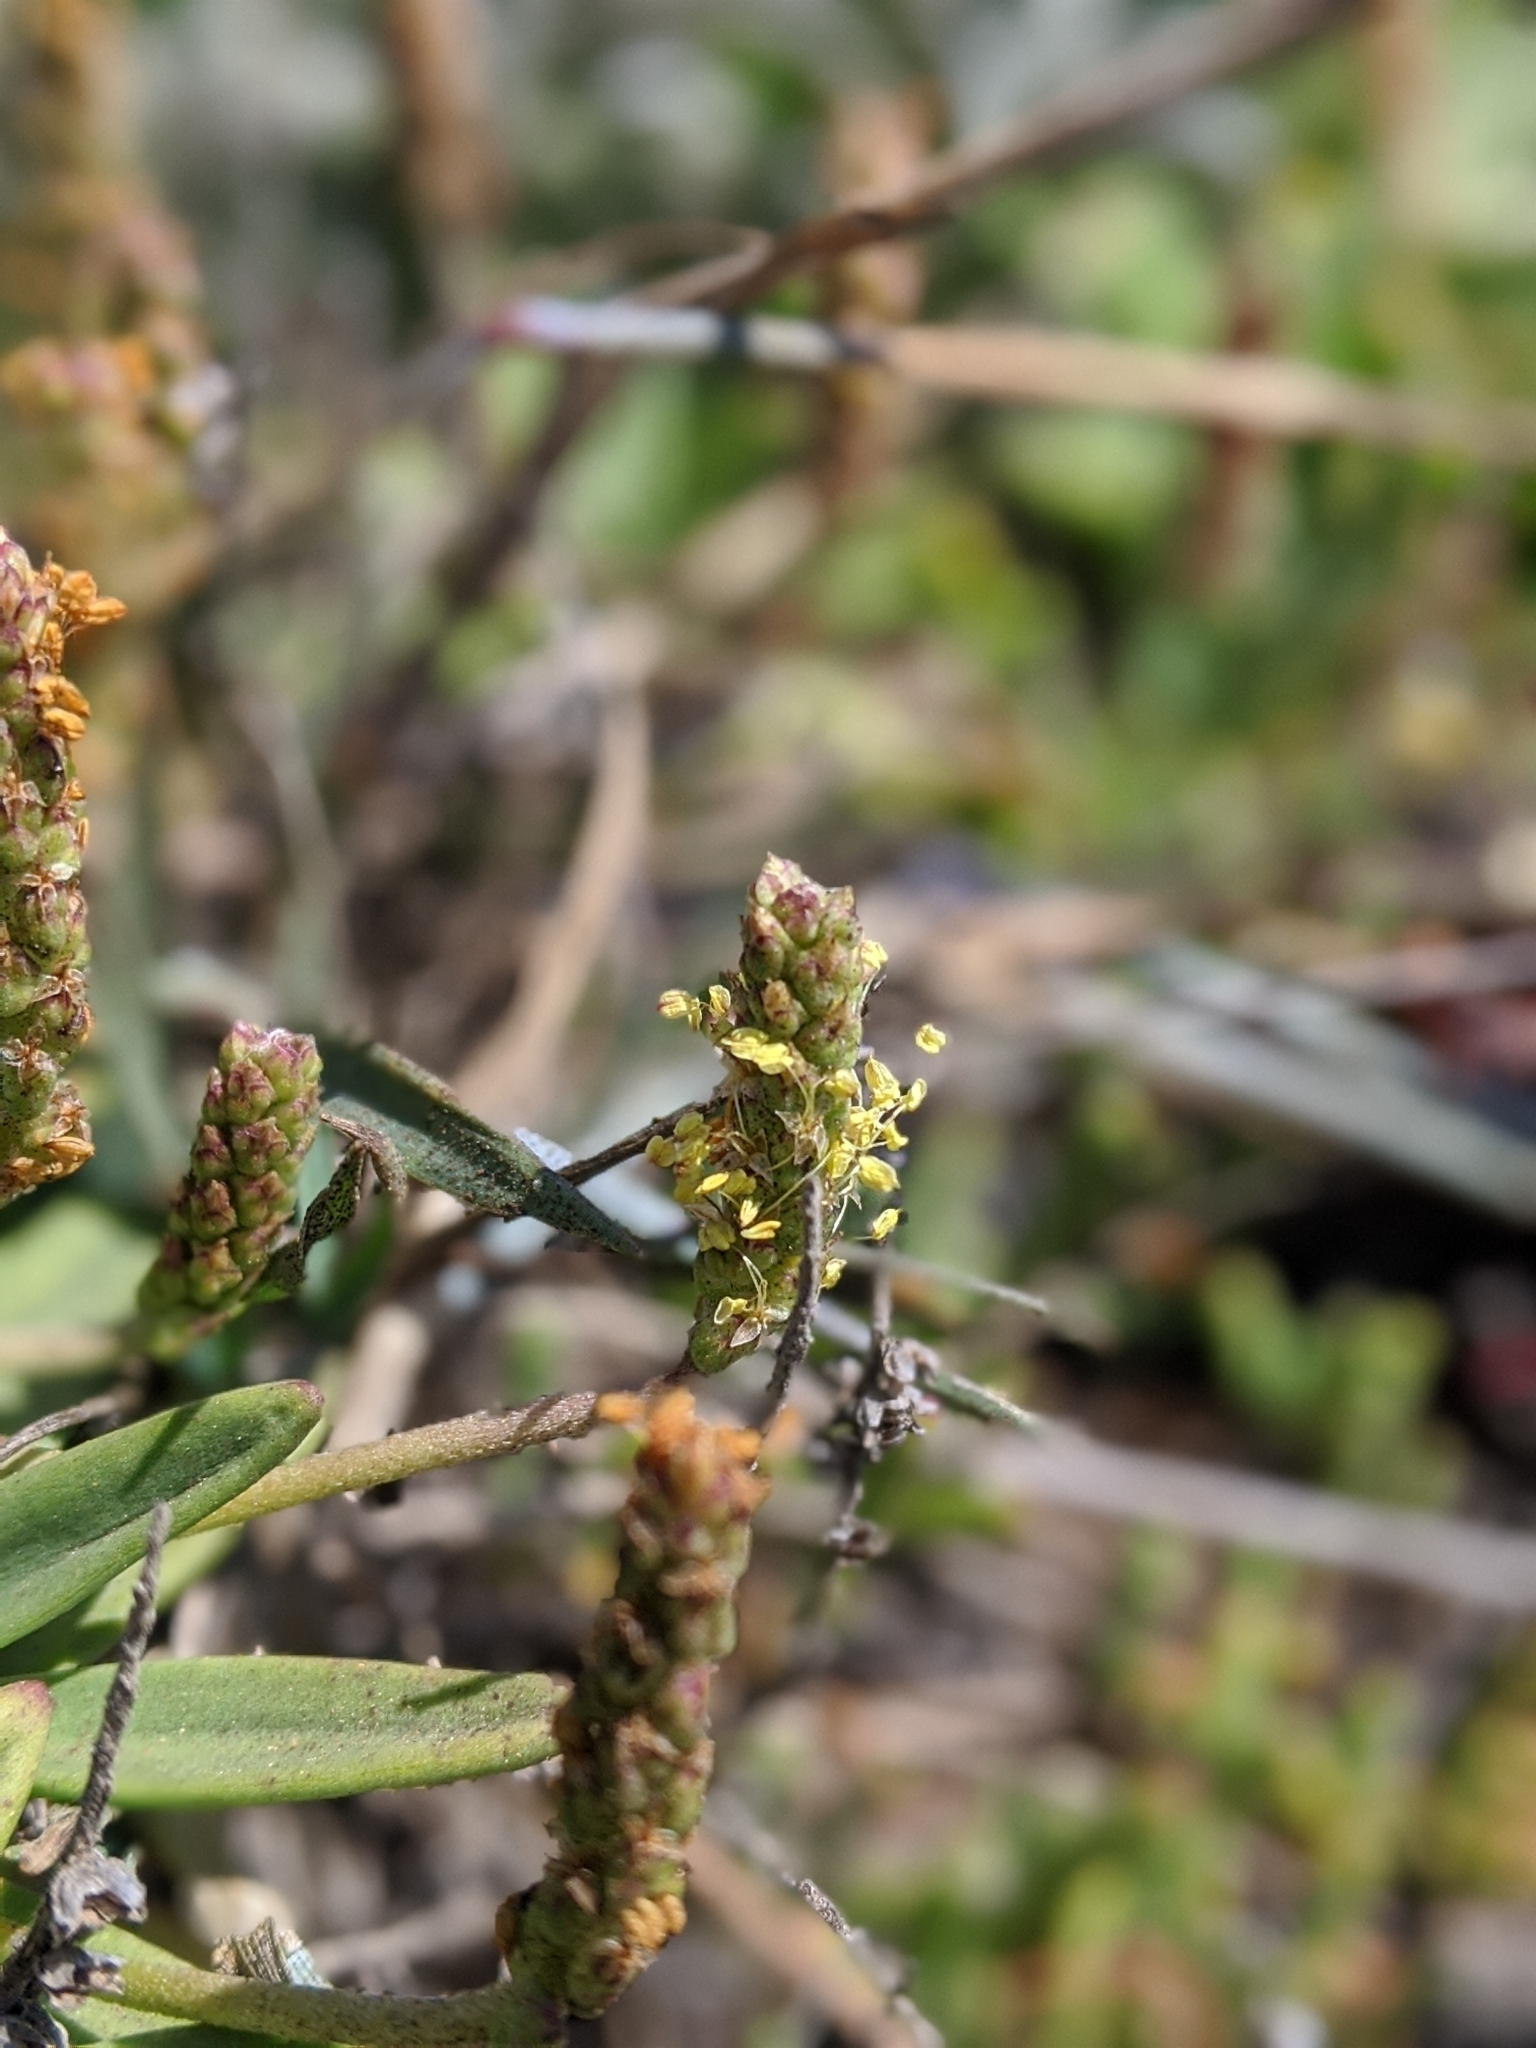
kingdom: Plantae
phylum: Tracheophyta
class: Magnoliopsida
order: Lamiales
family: Plantaginaceae
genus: Plantago
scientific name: Plantago maritima
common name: Sea plantain
